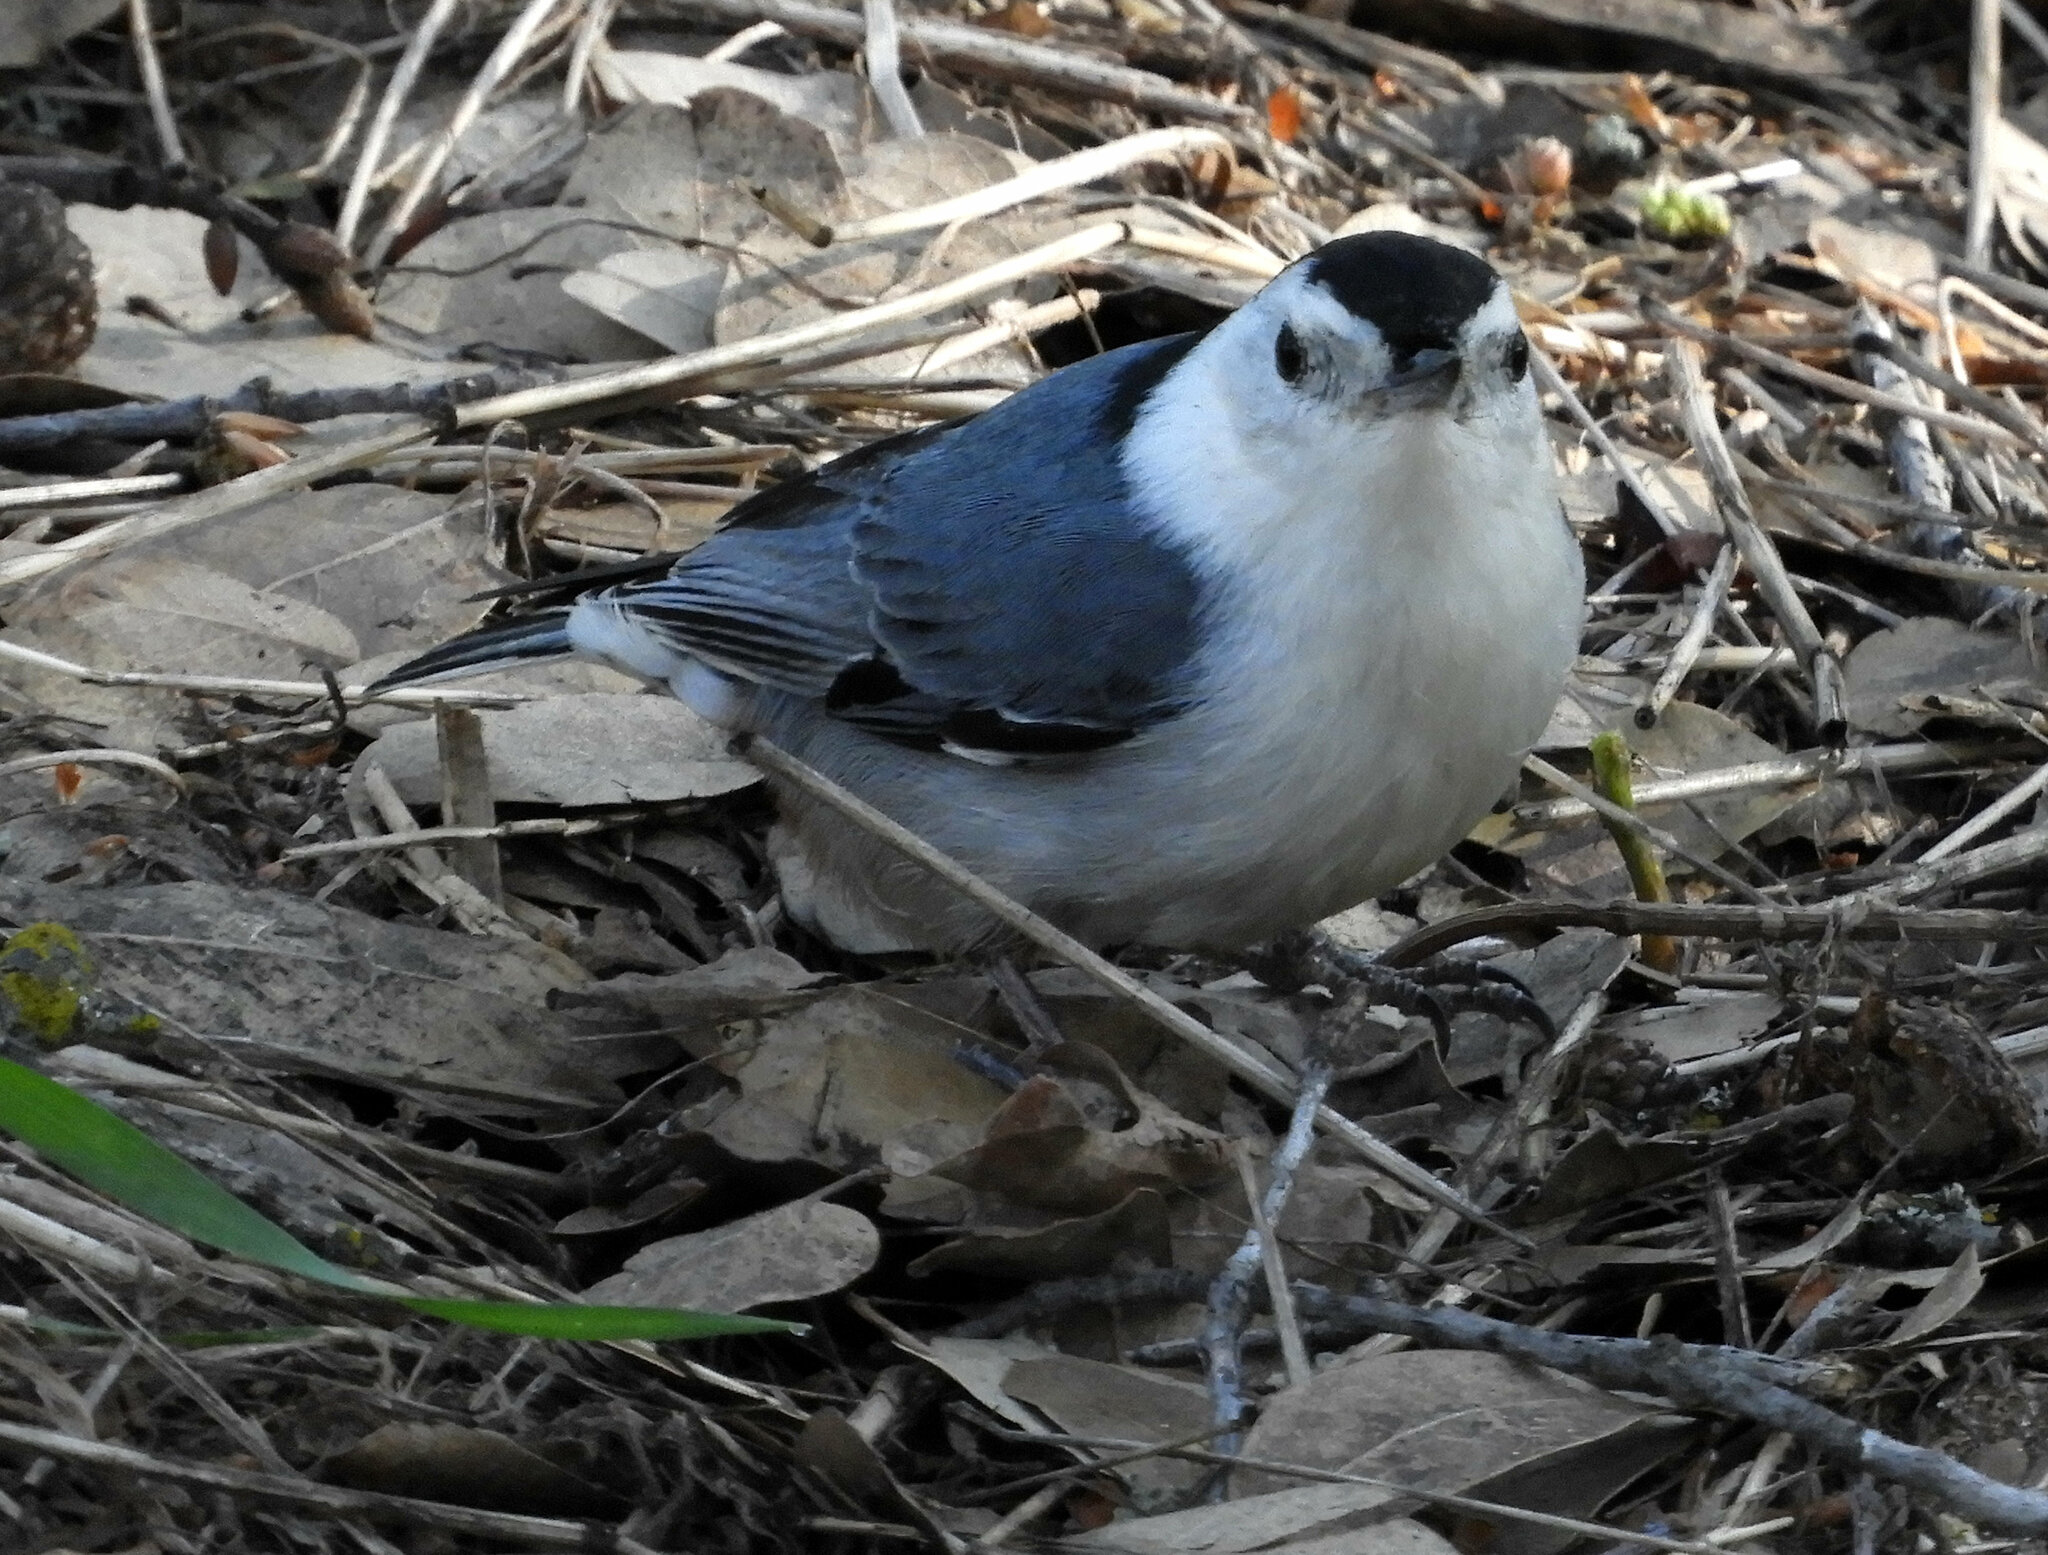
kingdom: Animalia
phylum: Chordata
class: Aves
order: Passeriformes
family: Sittidae
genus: Sitta
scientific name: Sitta carolinensis
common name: White-breasted nuthatch
